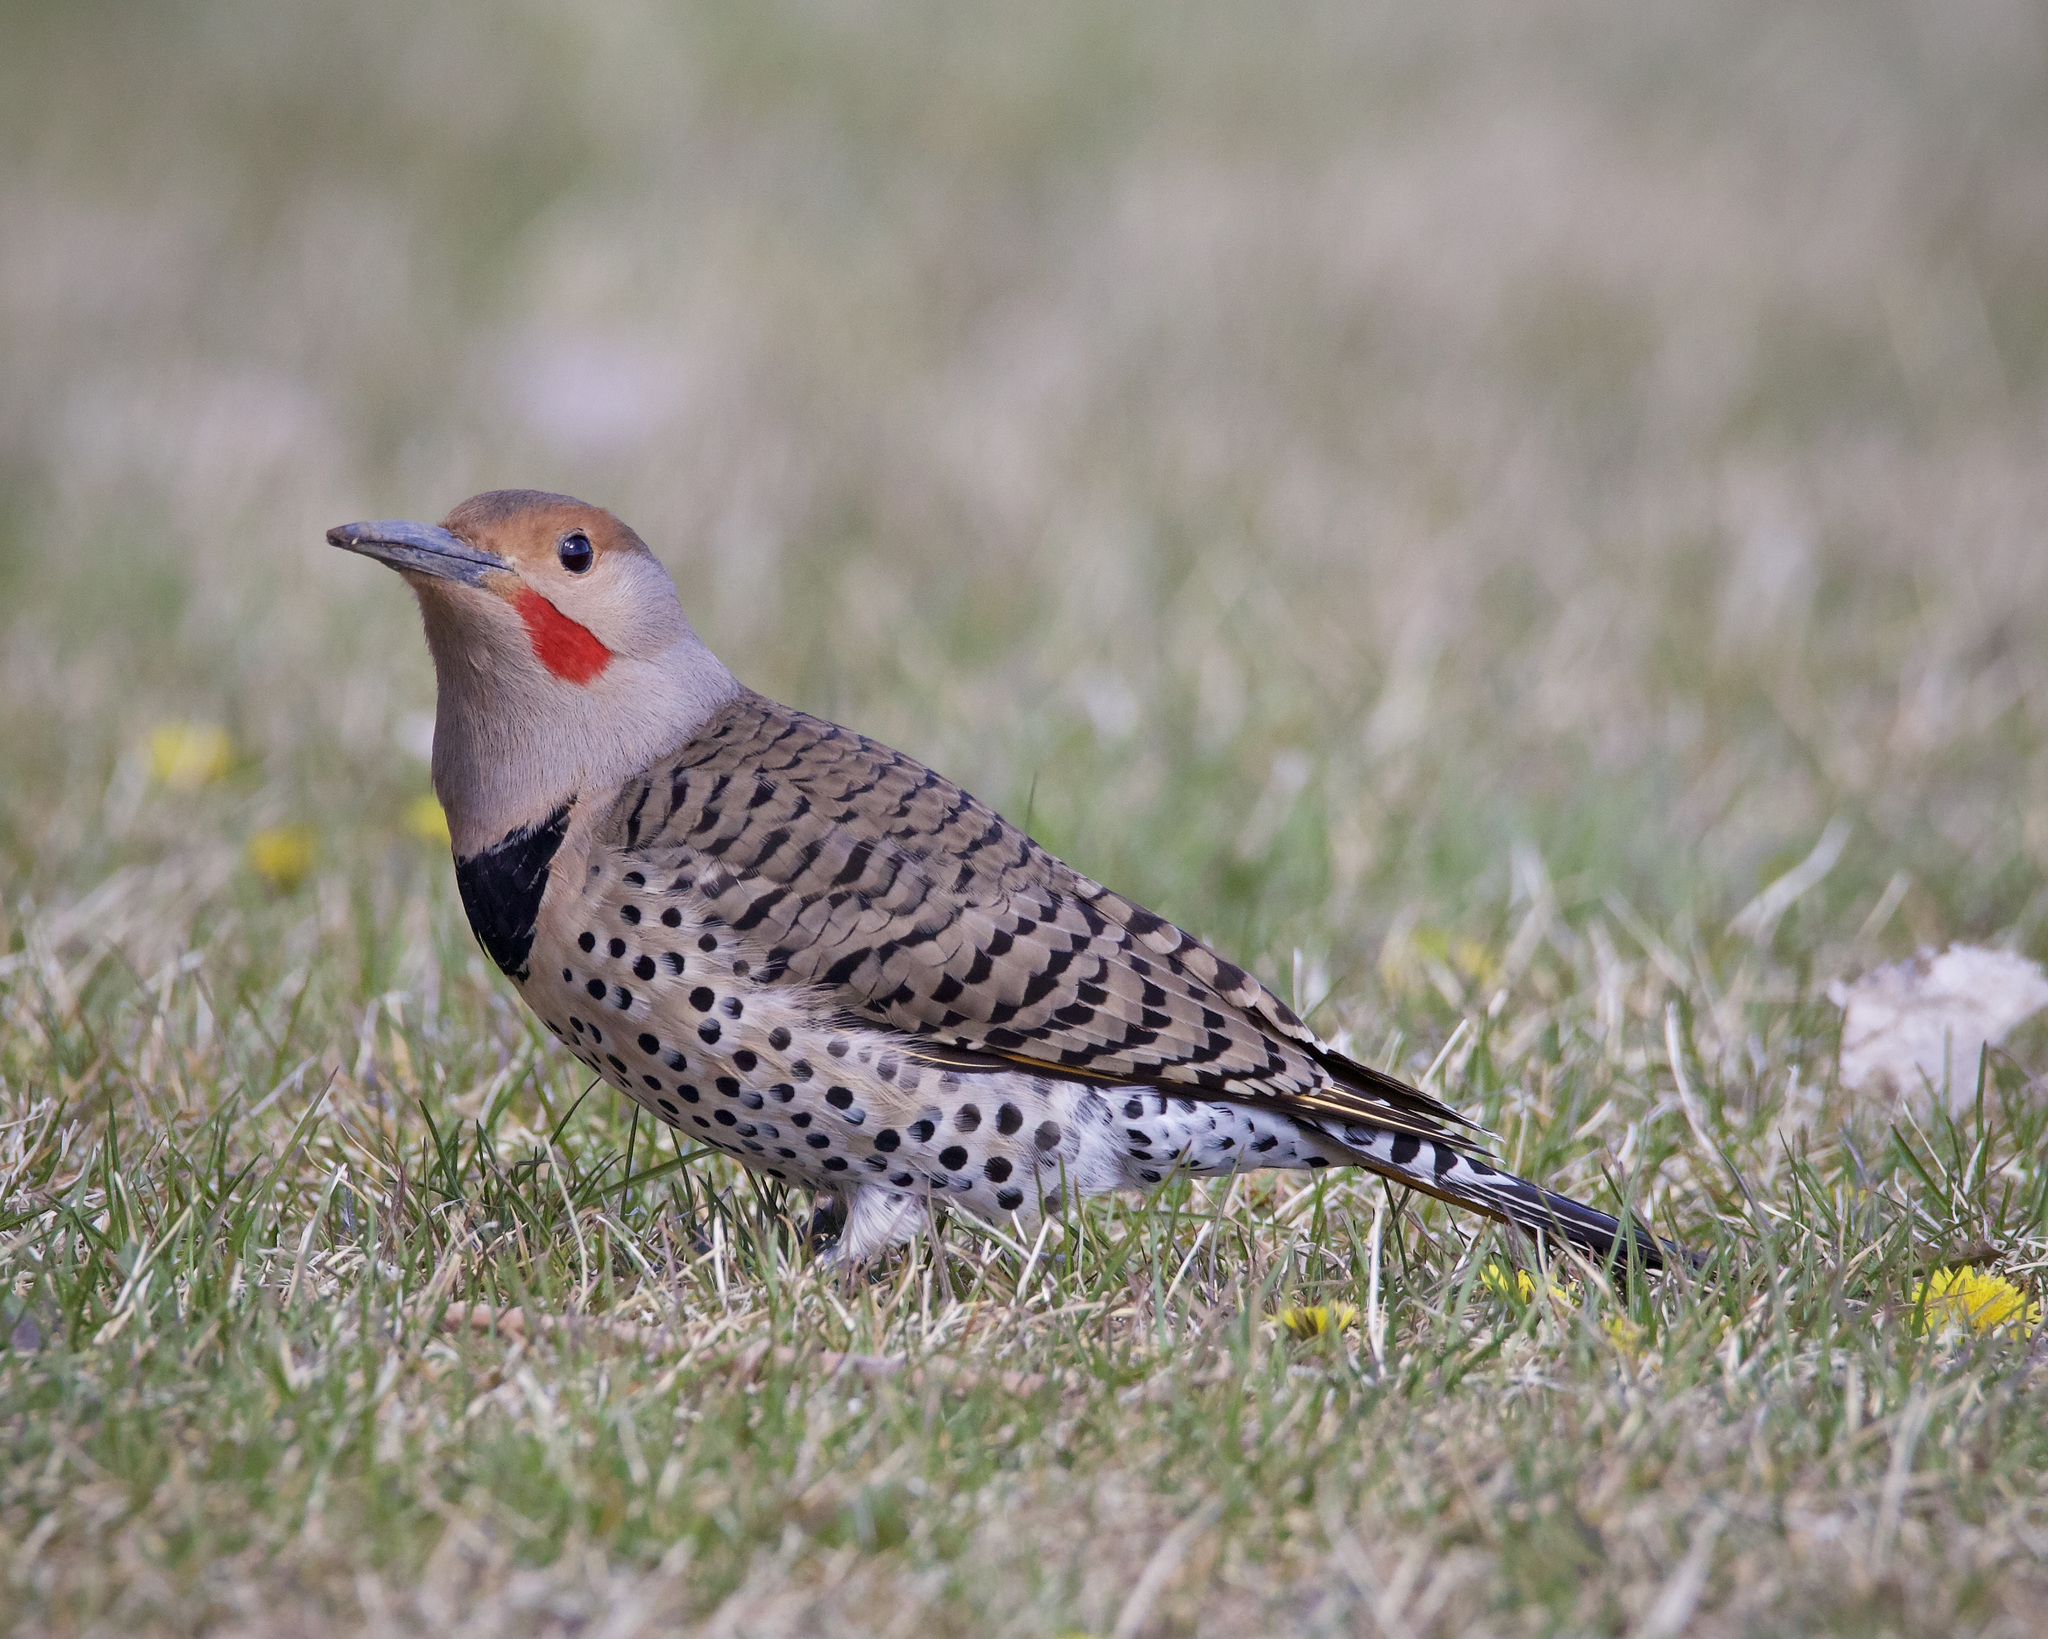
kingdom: Animalia
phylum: Chordata
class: Aves
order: Piciformes
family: Picidae
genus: Colaptes
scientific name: Colaptes auratus
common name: Northern flicker
